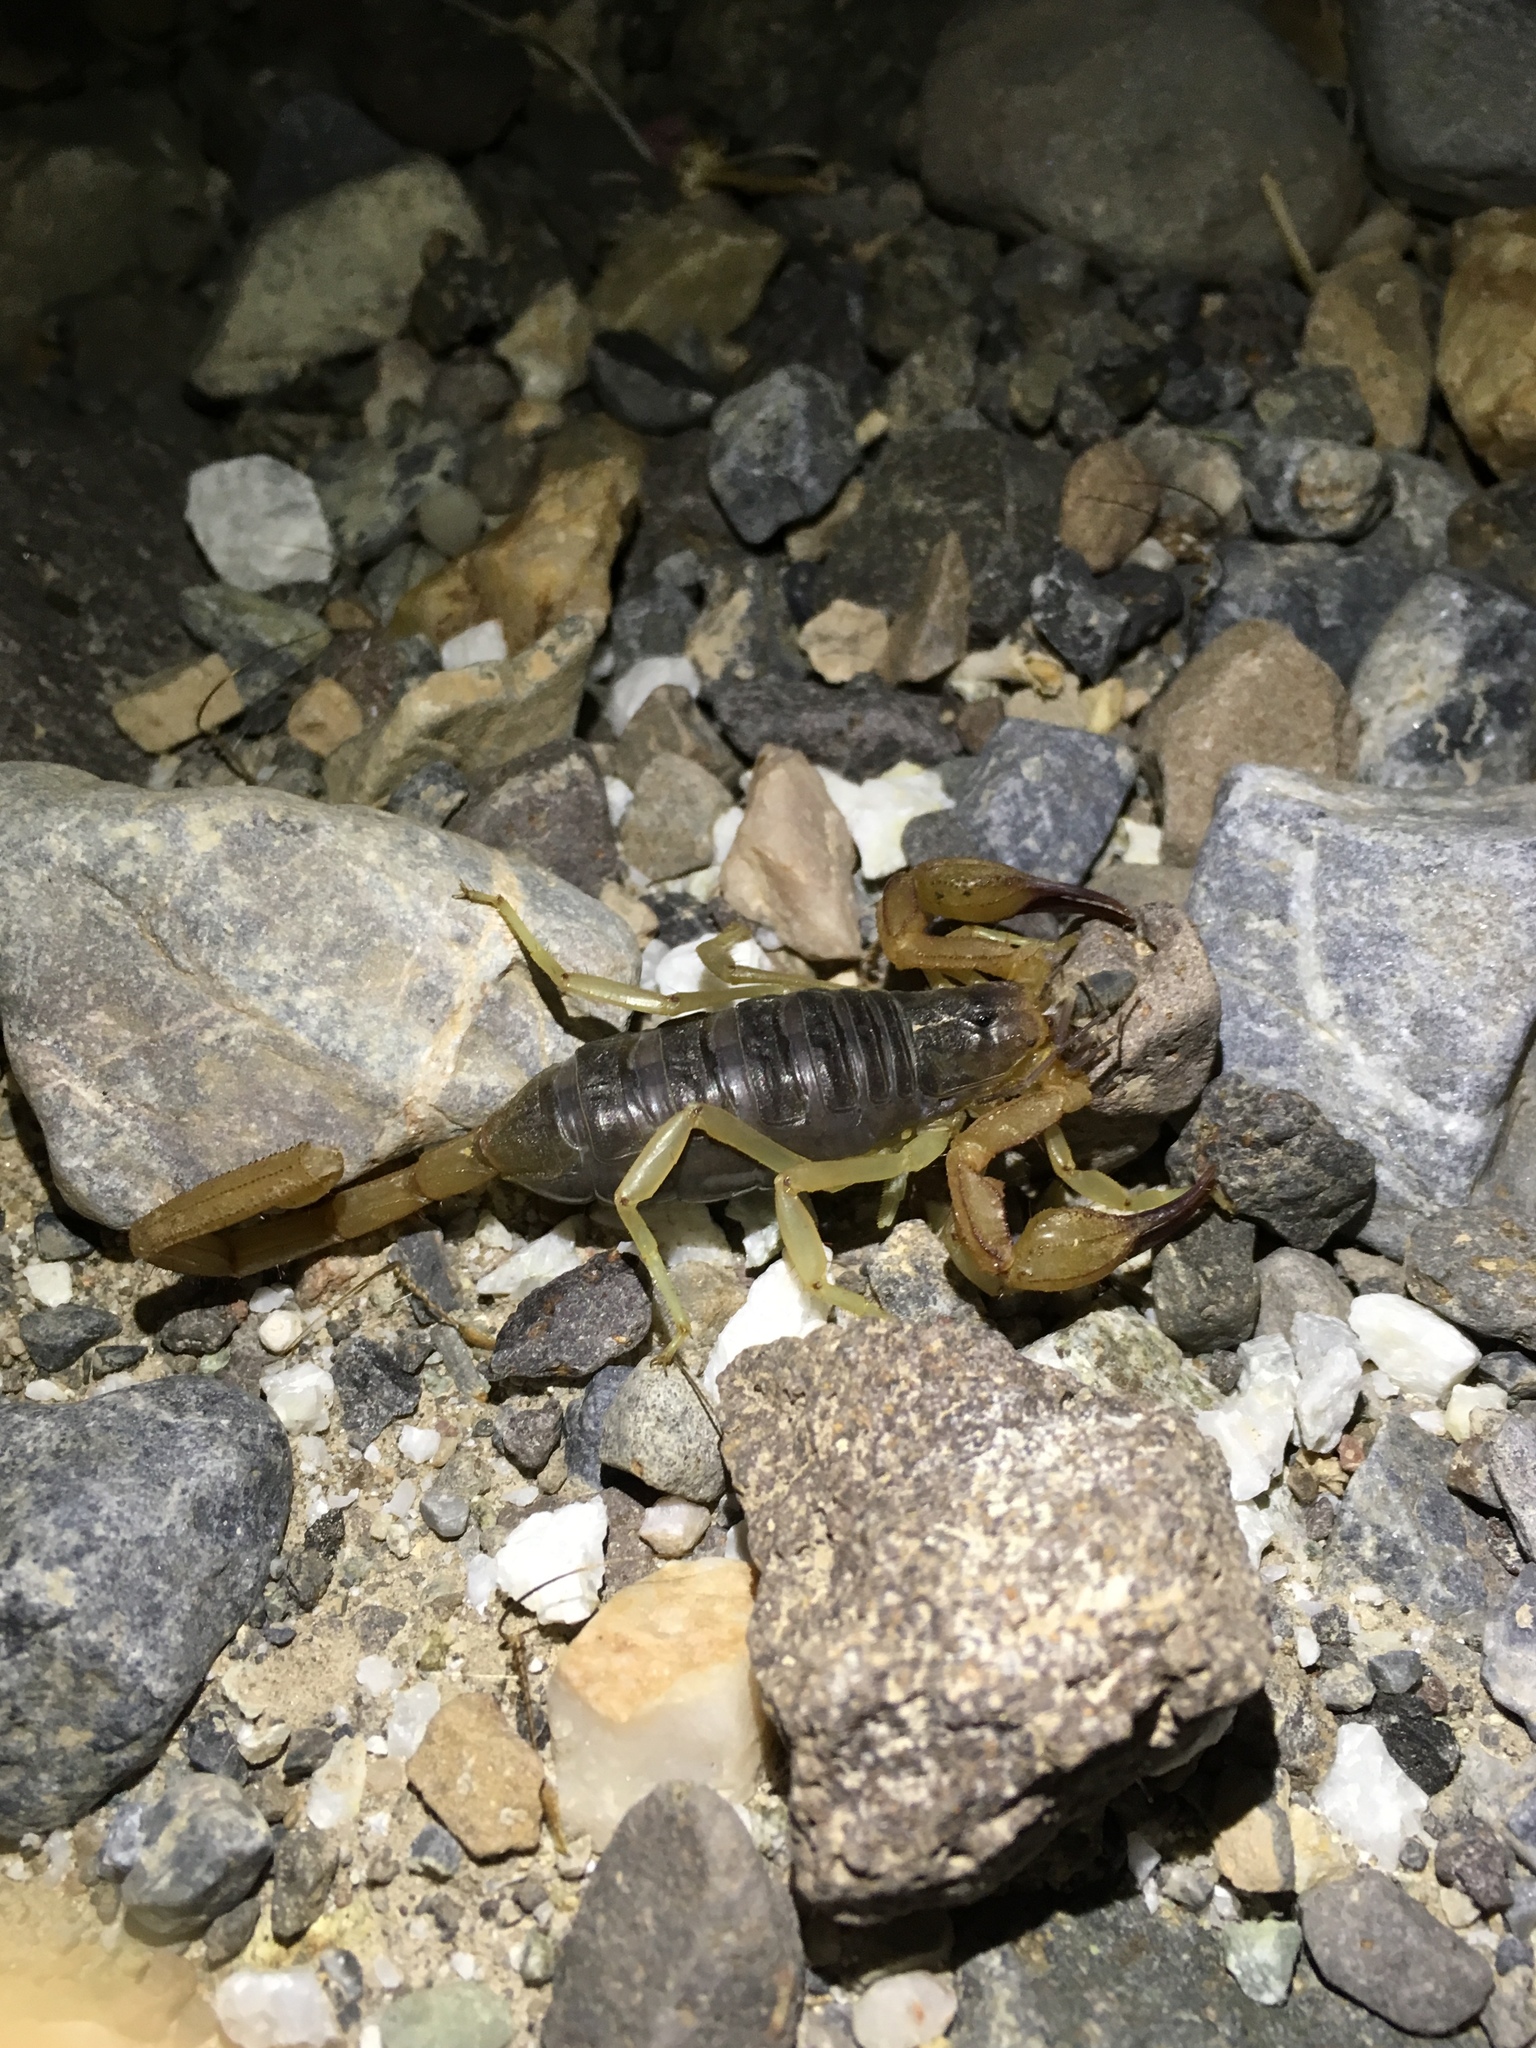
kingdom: Animalia
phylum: Arthropoda
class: Arachnida
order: Scorpiones
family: Vaejovidae
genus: Smeringurus
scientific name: Smeringurus vachoni
